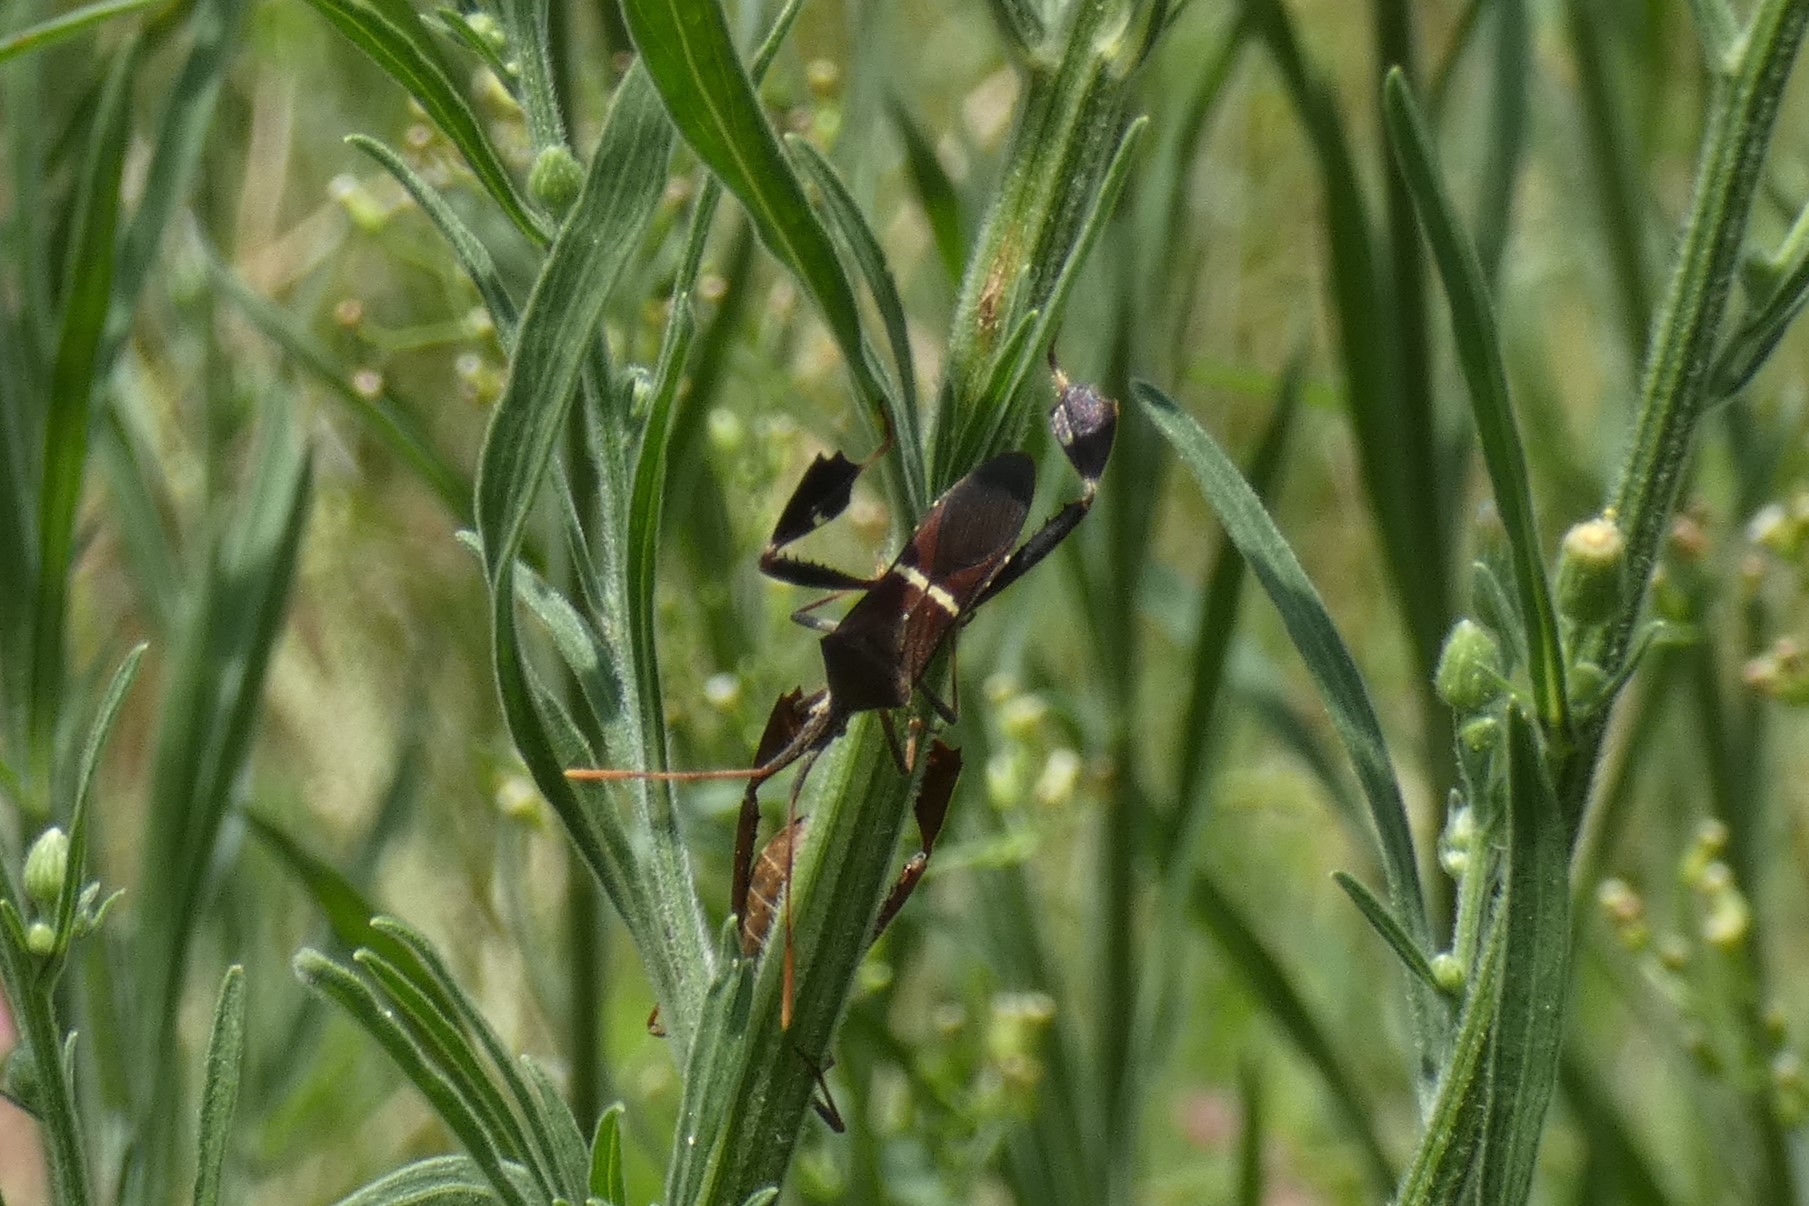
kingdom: Animalia
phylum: Arthropoda
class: Insecta
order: Hemiptera
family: Coreidae
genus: Leptoglossus
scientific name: Leptoglossus phyllopus
